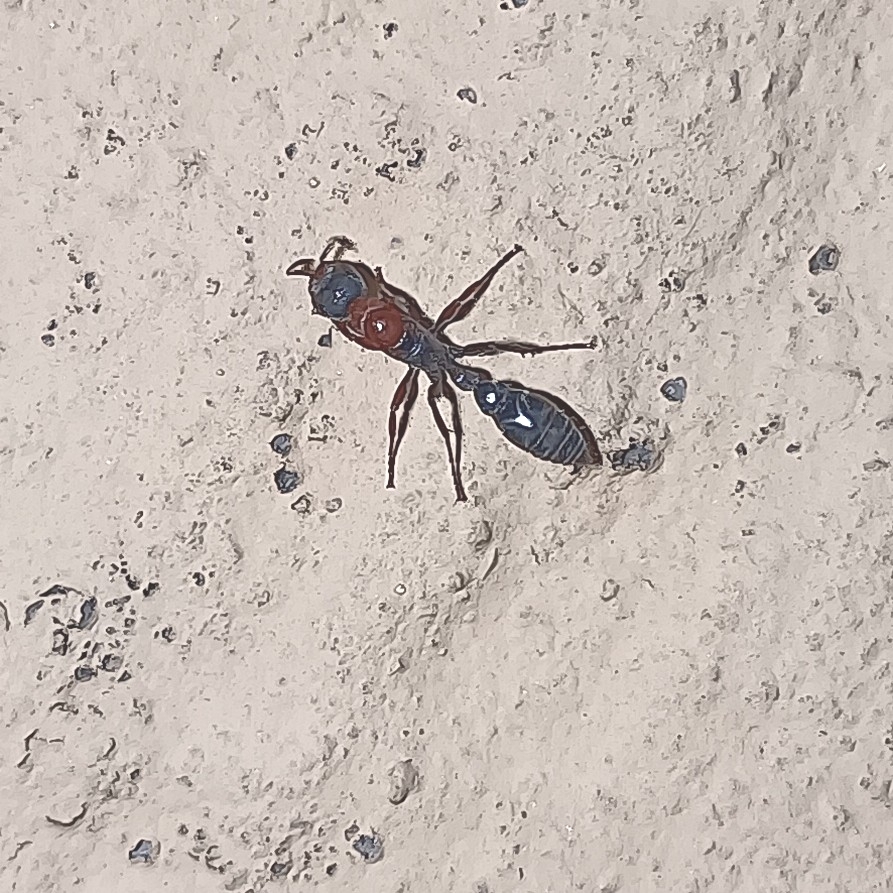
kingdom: Animalia
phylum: Arthropoda
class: Insecta
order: Hymenoptera
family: Formicidae
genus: Pseudomyrmex
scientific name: Pseudomyrmex gracilis
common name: Graceful twig ant
